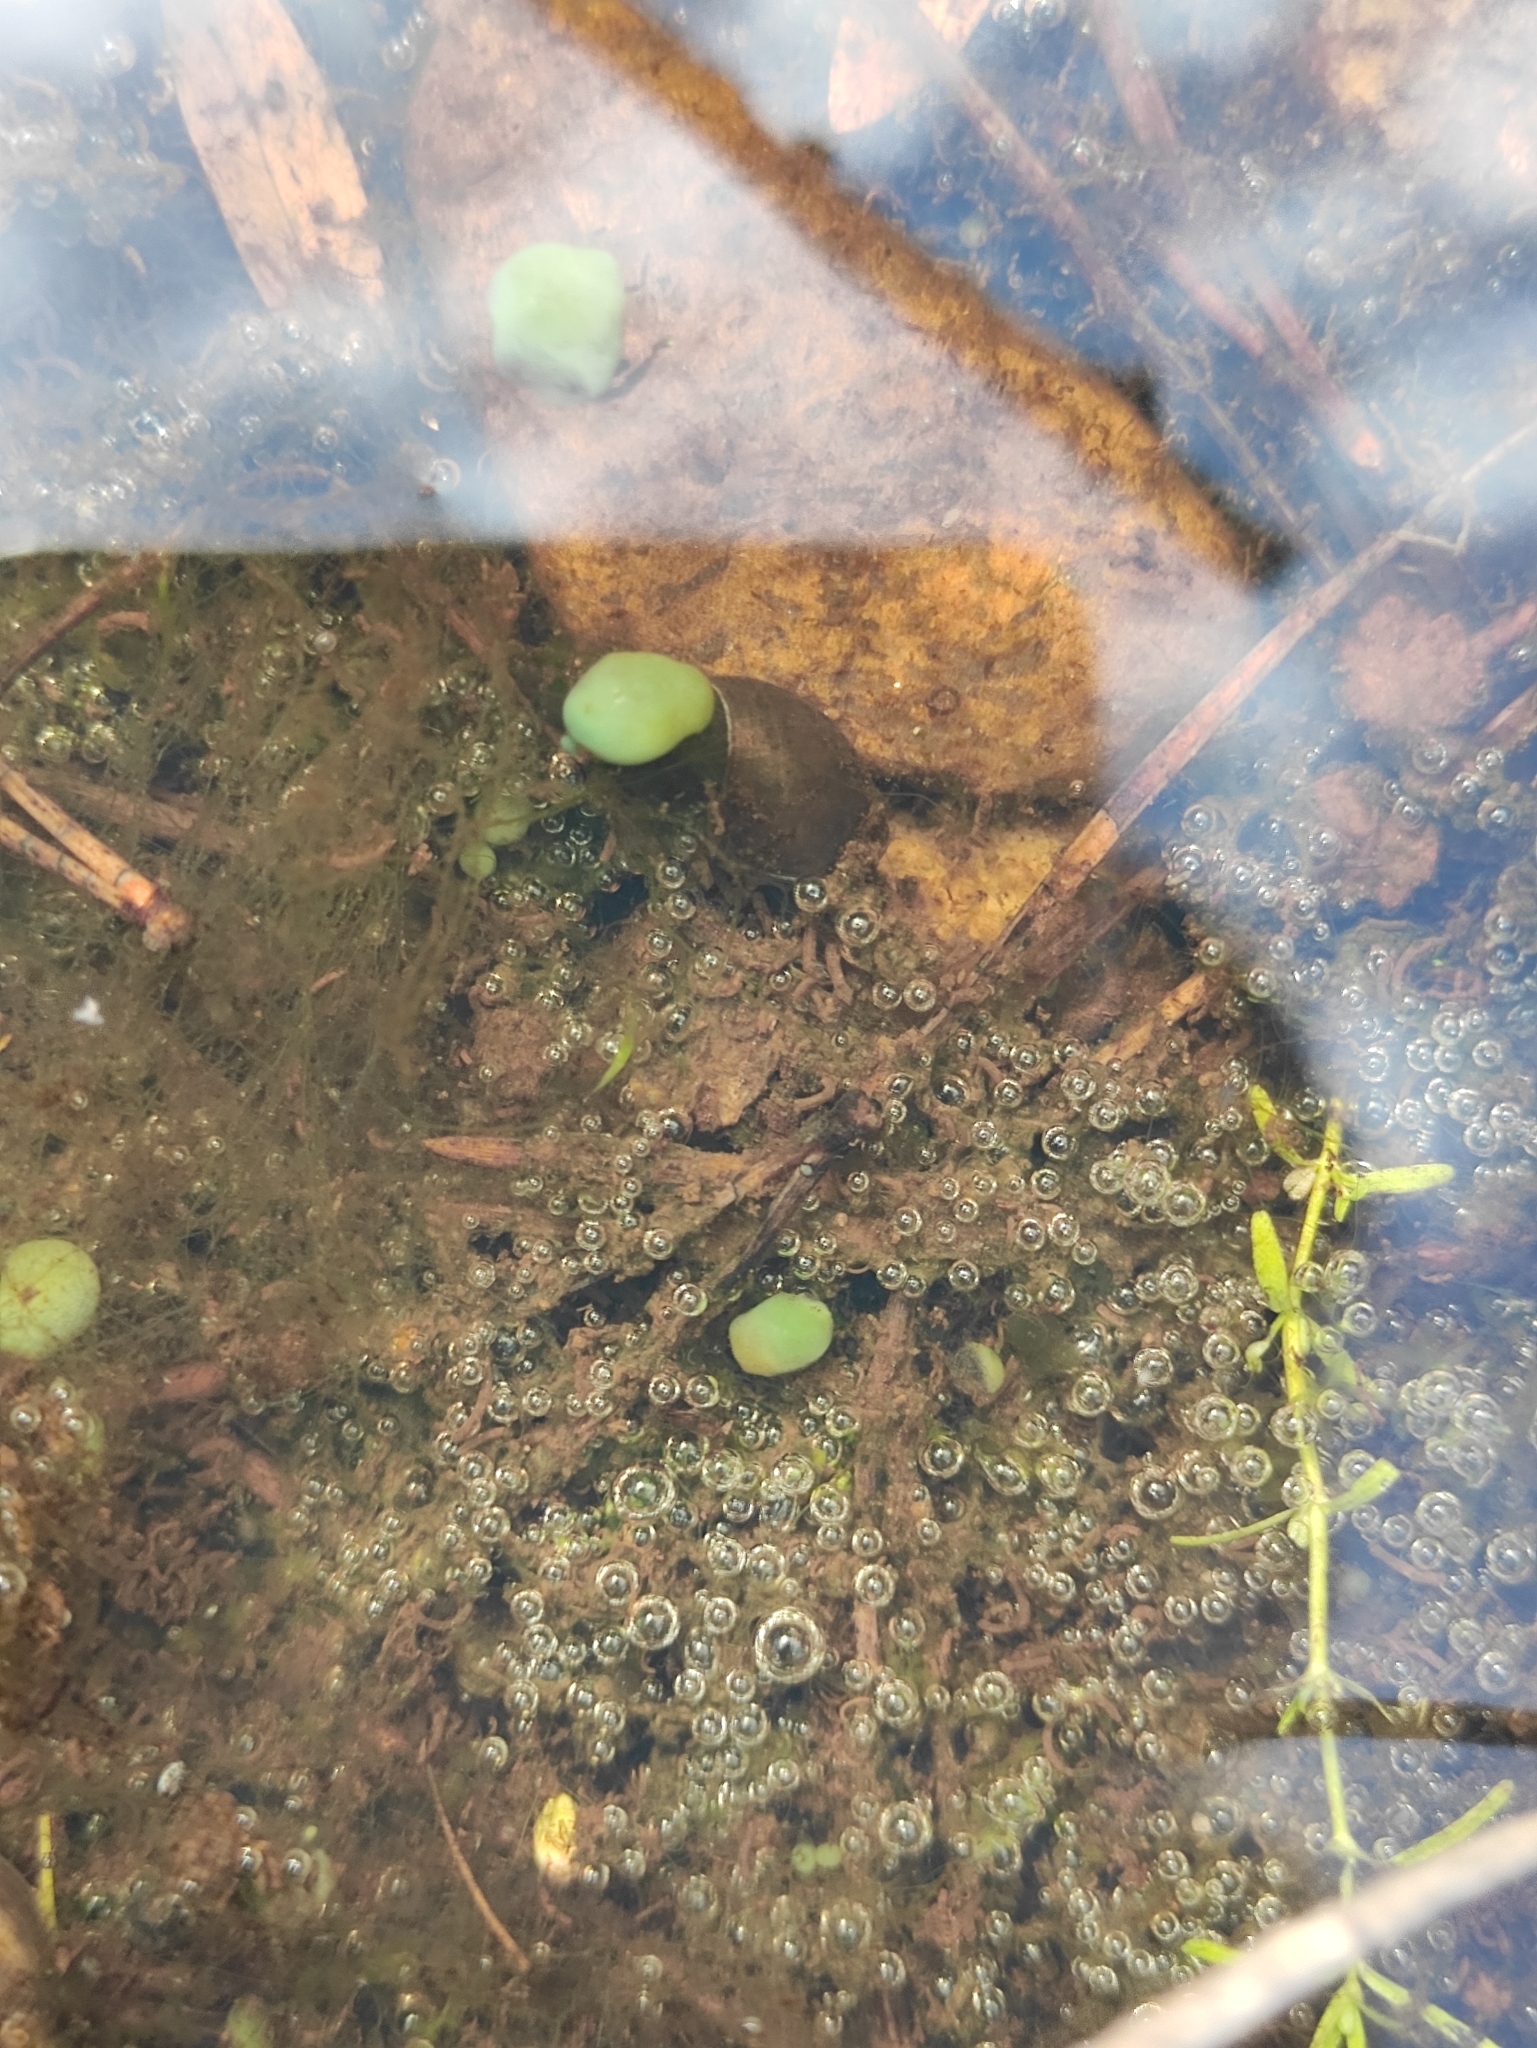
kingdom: Bacteria
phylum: Cyanobacteria
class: Cyanobacteriia
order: Cyanobacteriales
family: Nostocaceae
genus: Nostoc
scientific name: Nostoc kihlmanii
